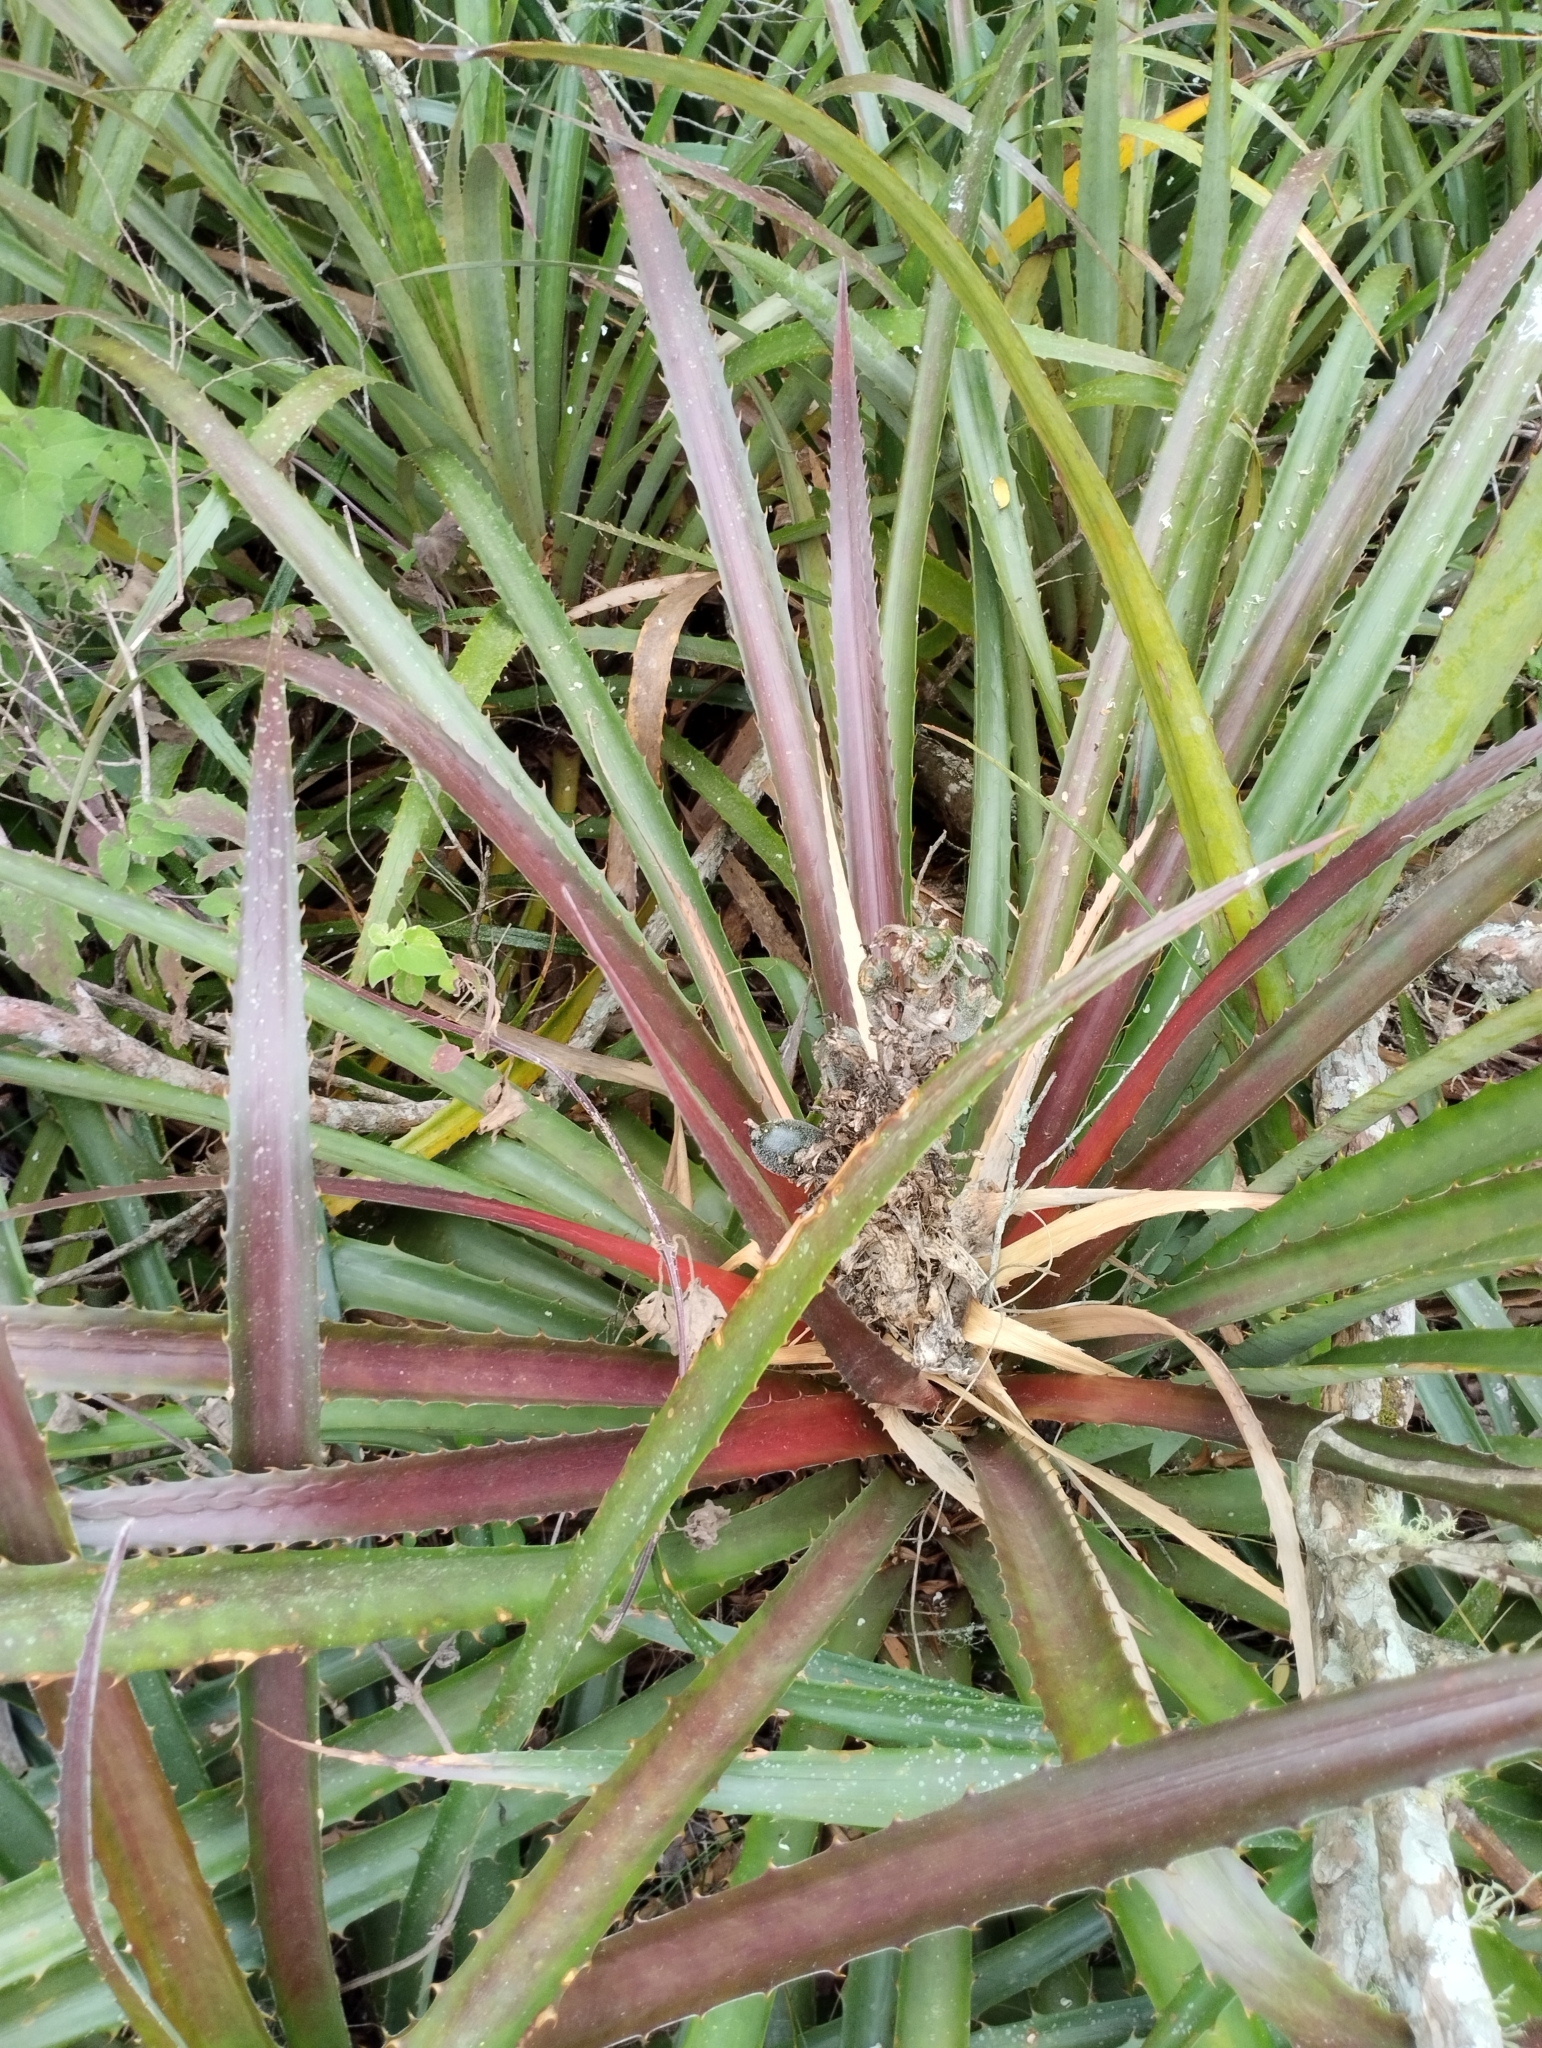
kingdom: Plantae
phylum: Tracheophyta
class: Liliopsida
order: Poales
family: Bromeliaceae
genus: Bromelia
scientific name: Bromelia antiacantha
